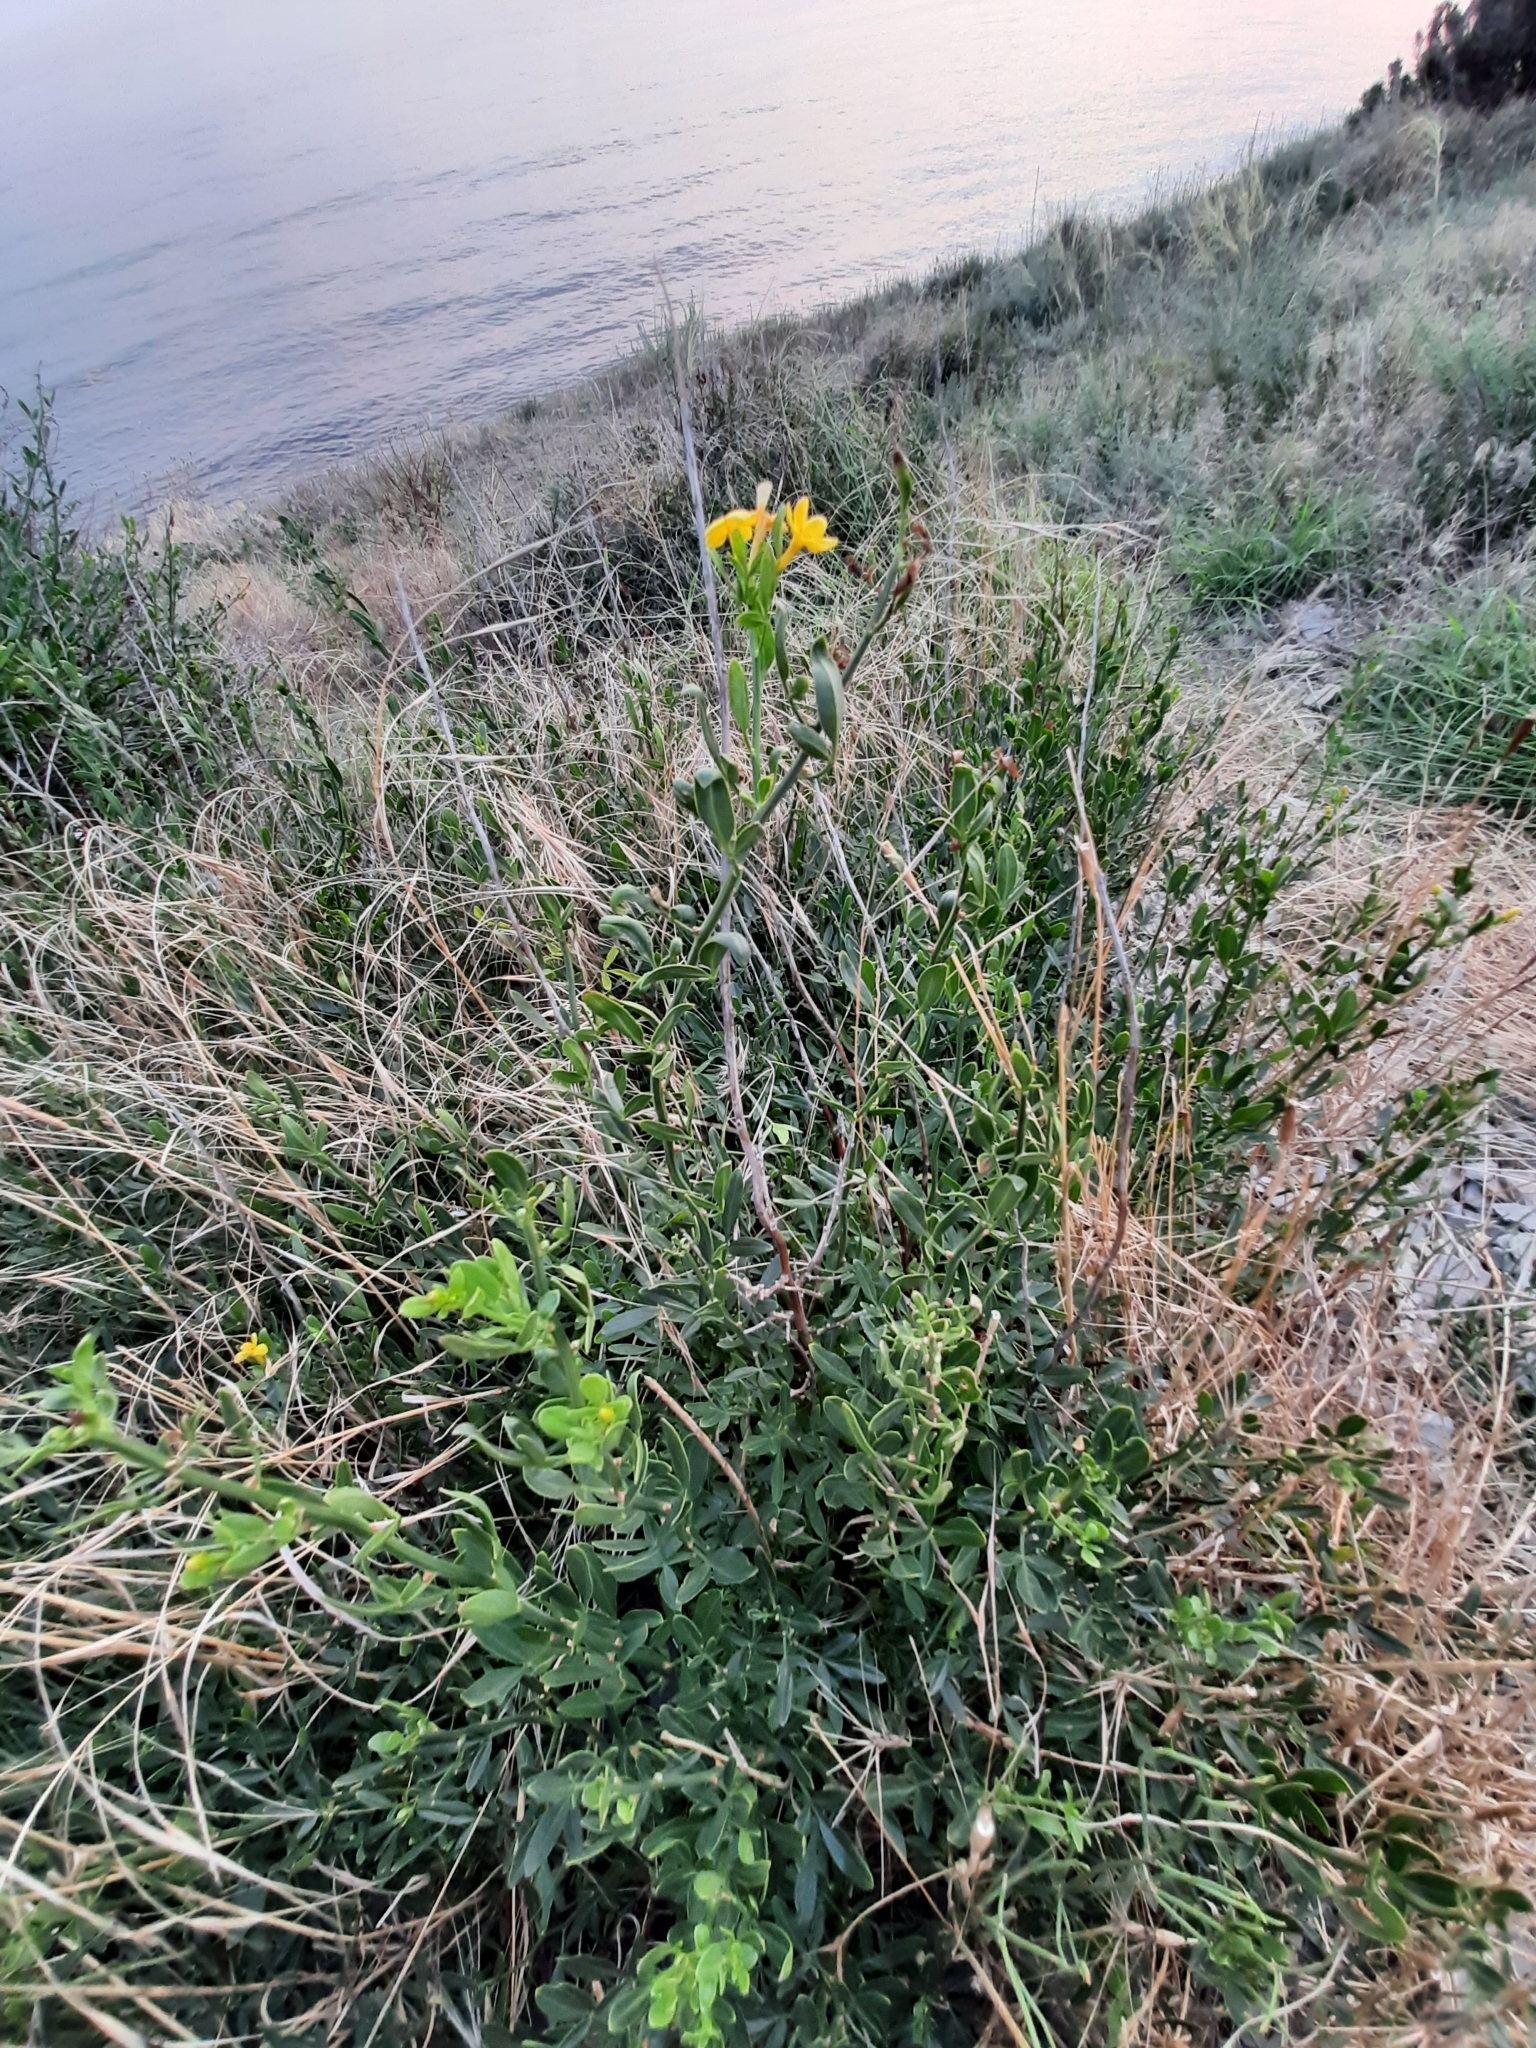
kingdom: Plantae
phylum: Tracheophyta
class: Magnoliopsida
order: Lamiales
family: Oleaceae
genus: Chrysojasminum
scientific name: Chrysojasminum fruticans
